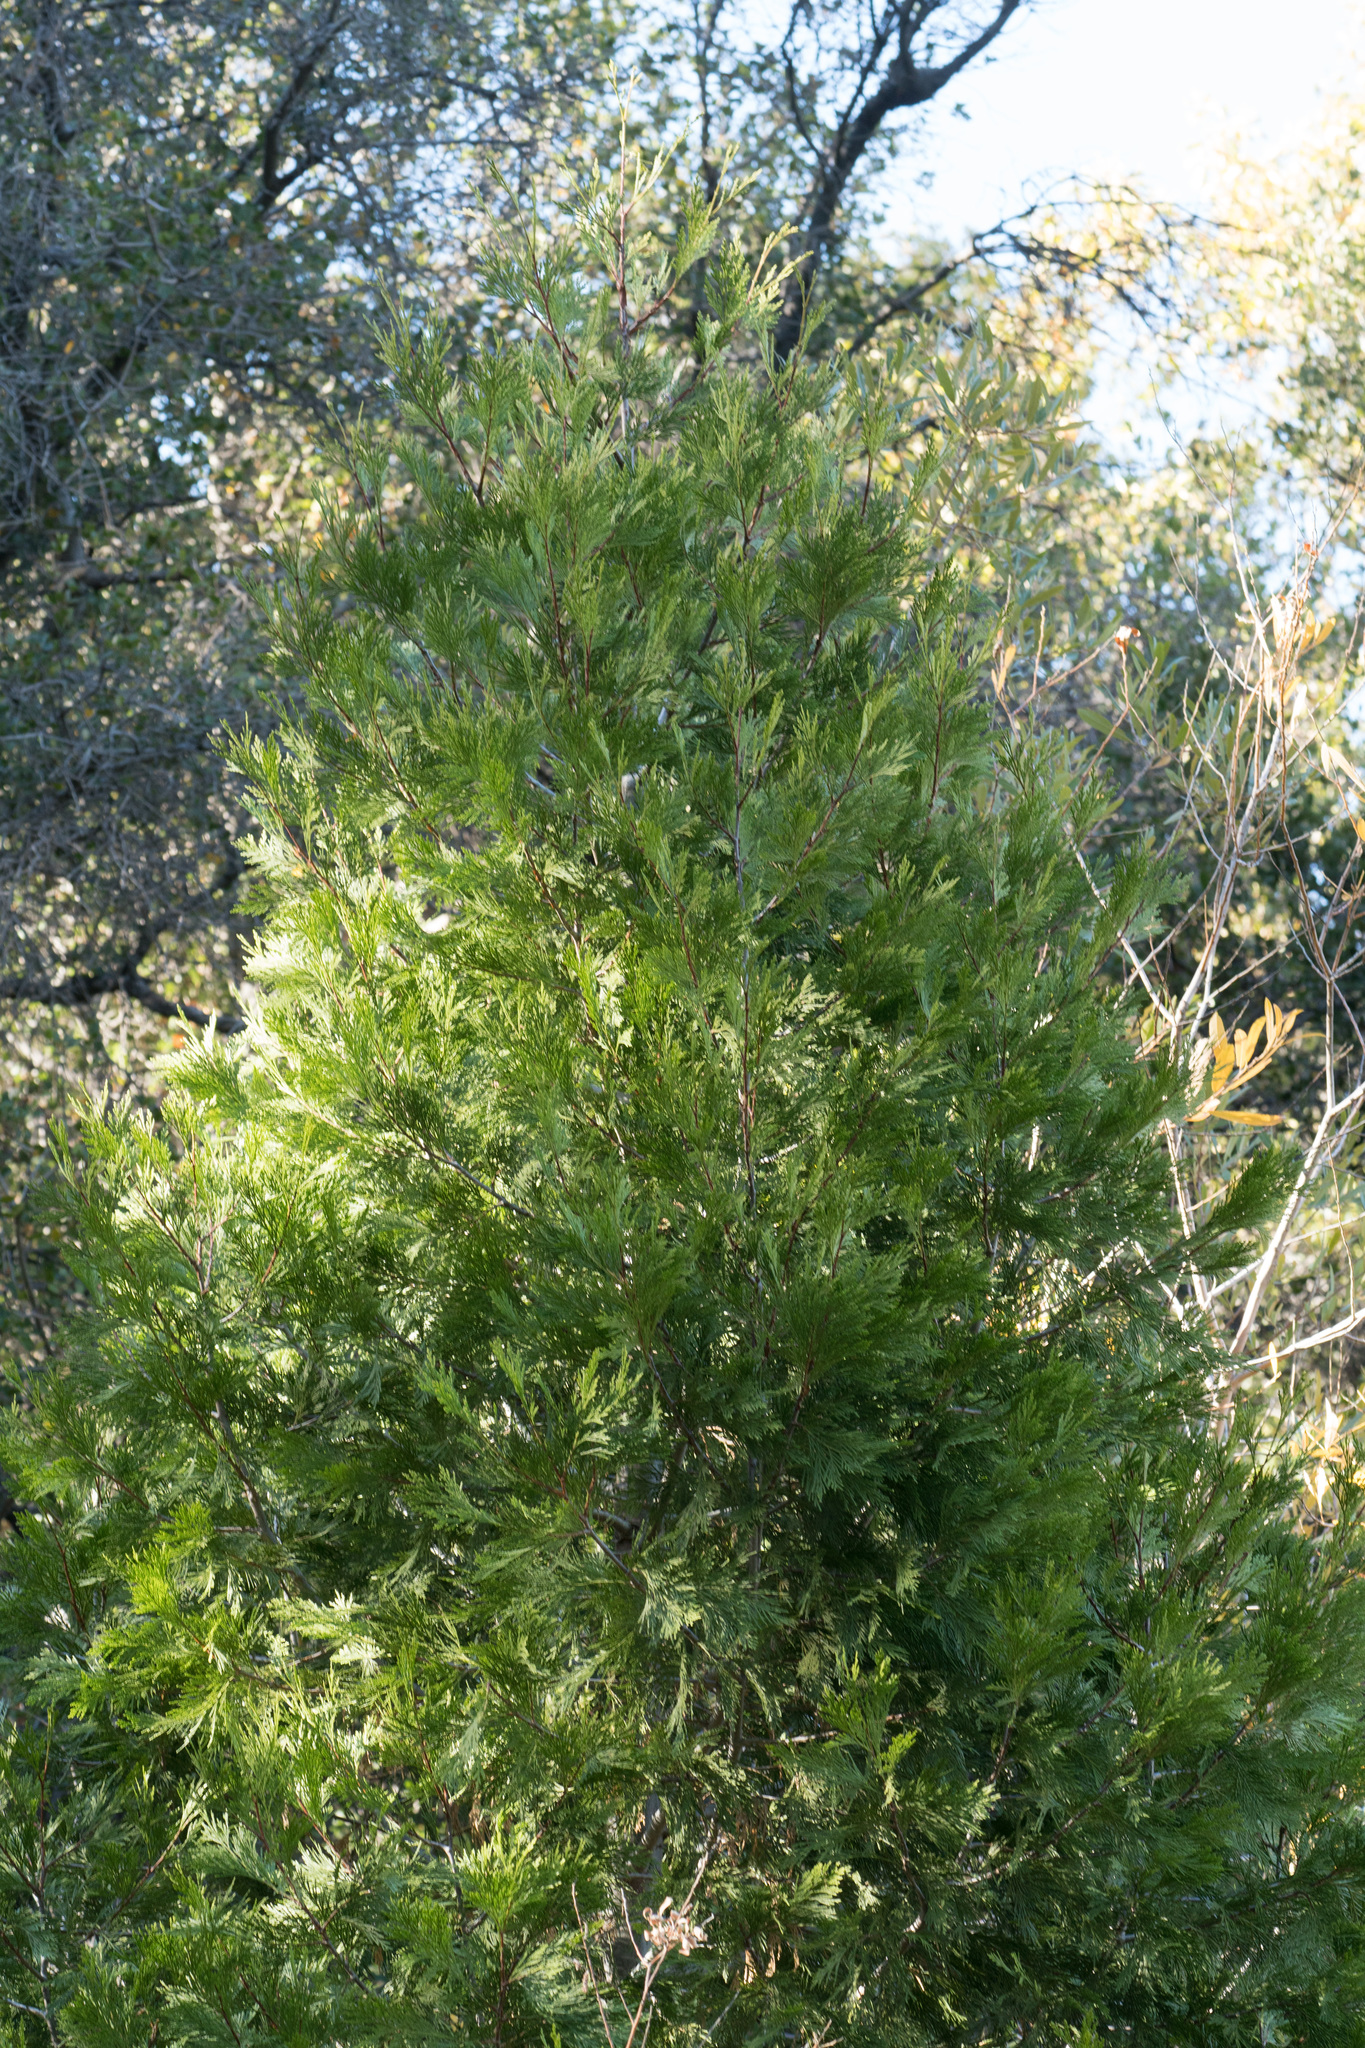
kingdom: Plantae
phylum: Tracheophyta
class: Pinopsida
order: Pinales
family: Cupressaceae
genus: Calocedrus
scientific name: Calocedrus decurrens
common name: Californian incense-cedar
